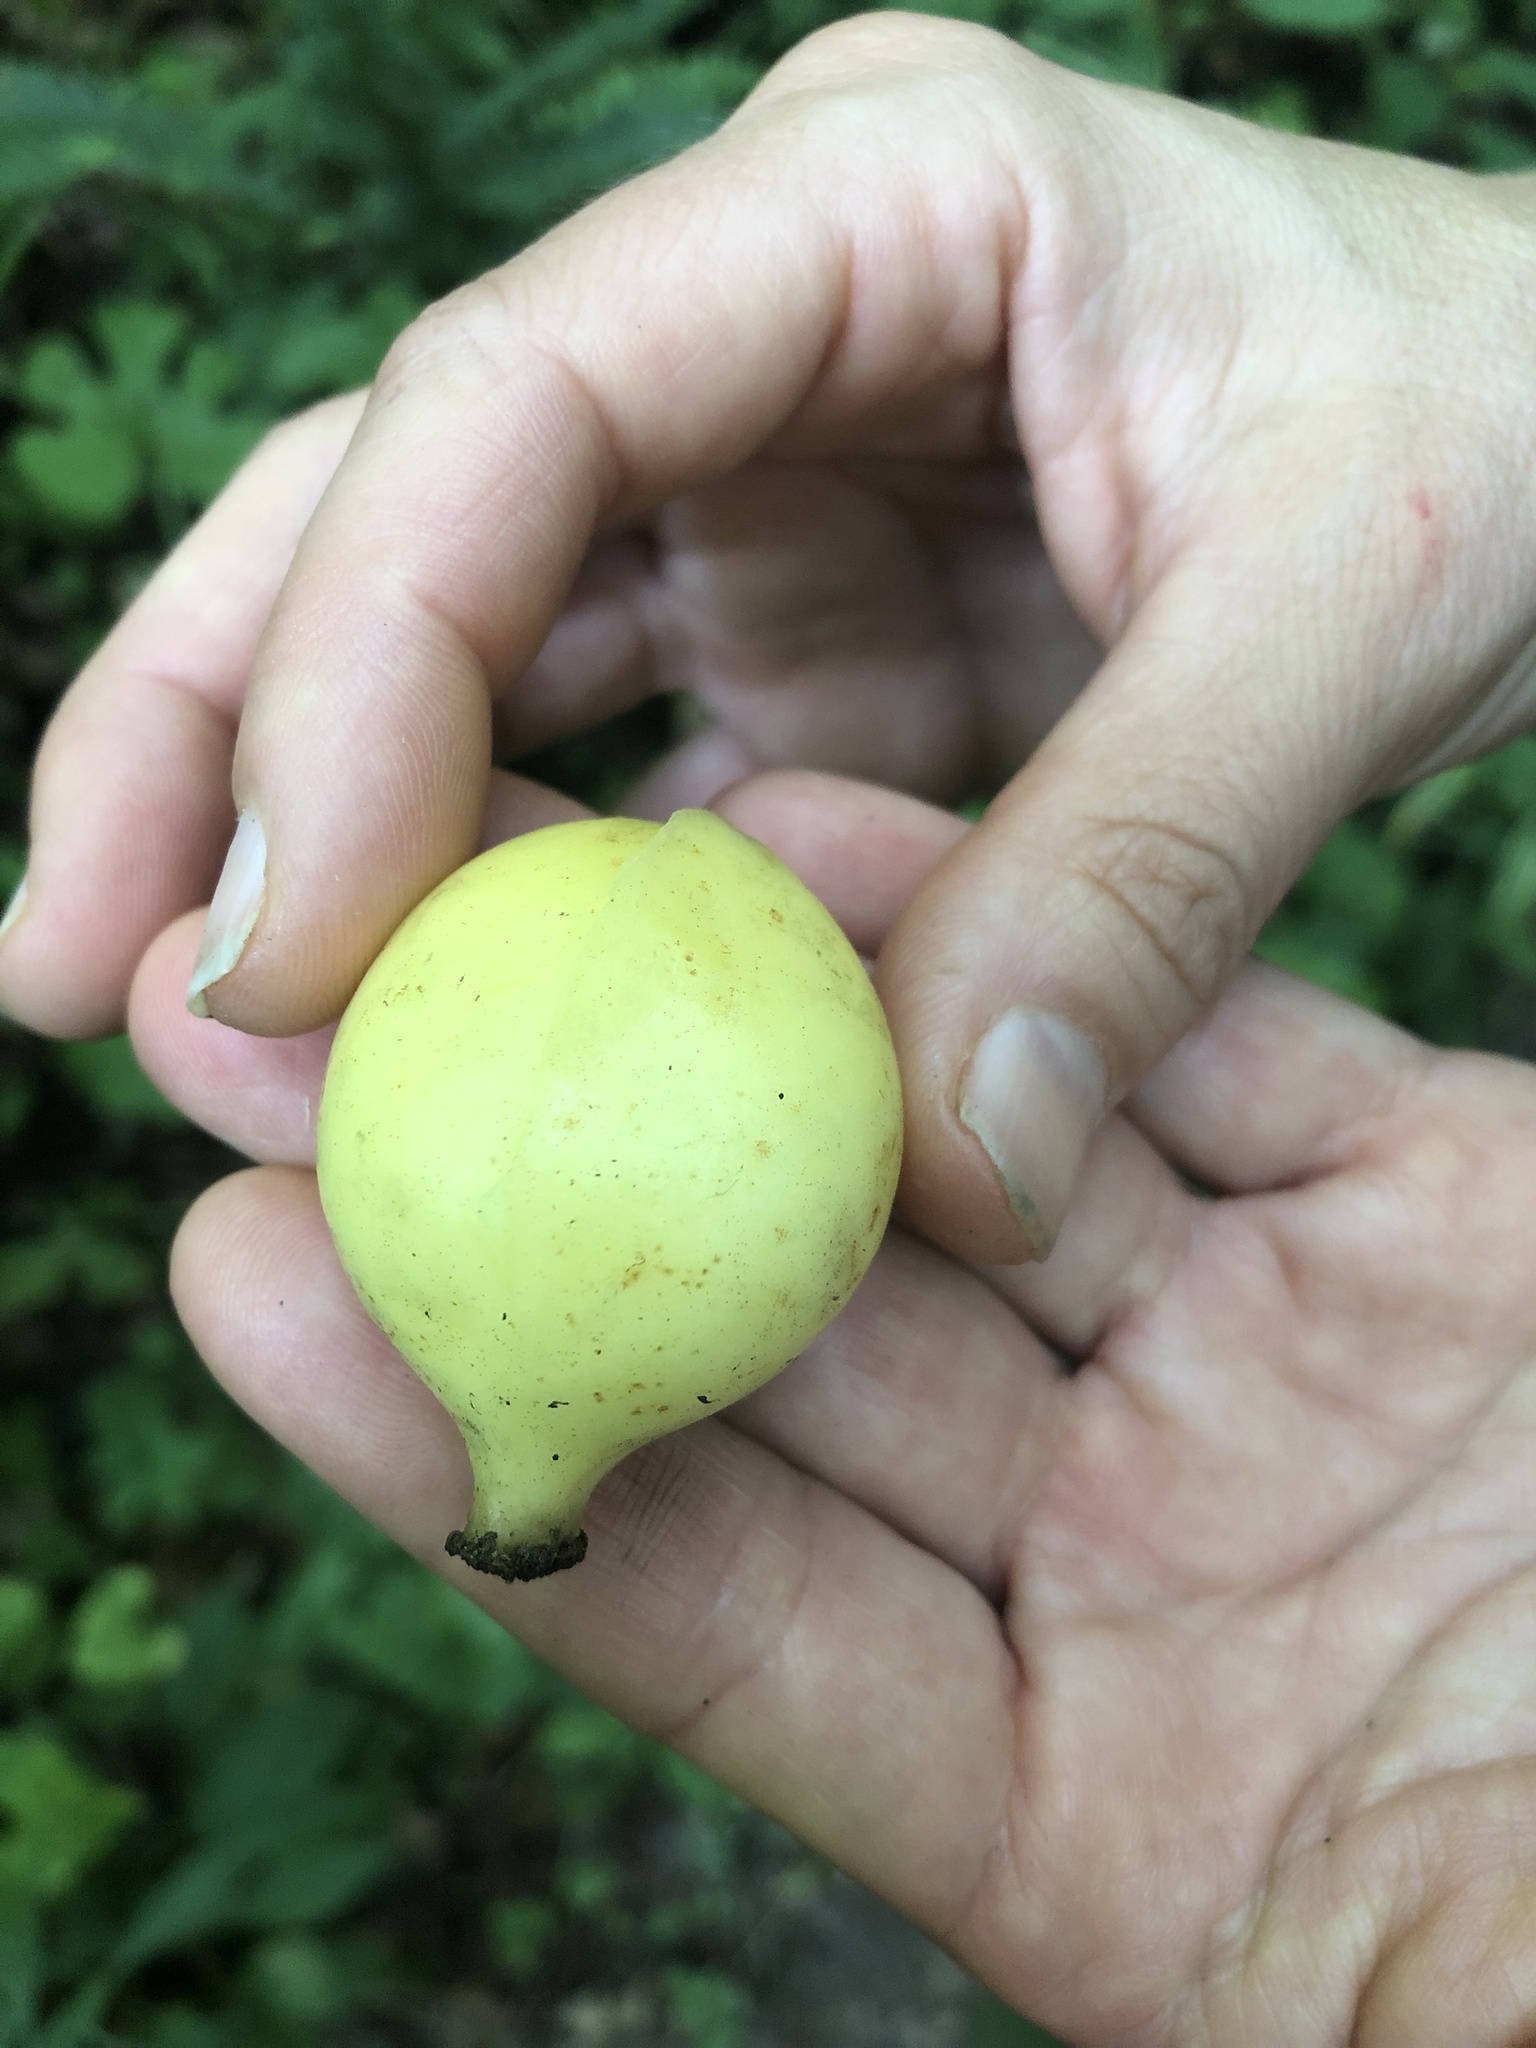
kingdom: Plantae
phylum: Tracheophyta
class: Magnoliopsida
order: Ranunculales
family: Berberidaceae
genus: Podophyllum
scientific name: Podophyllum peltatum
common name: Wild mandrake
